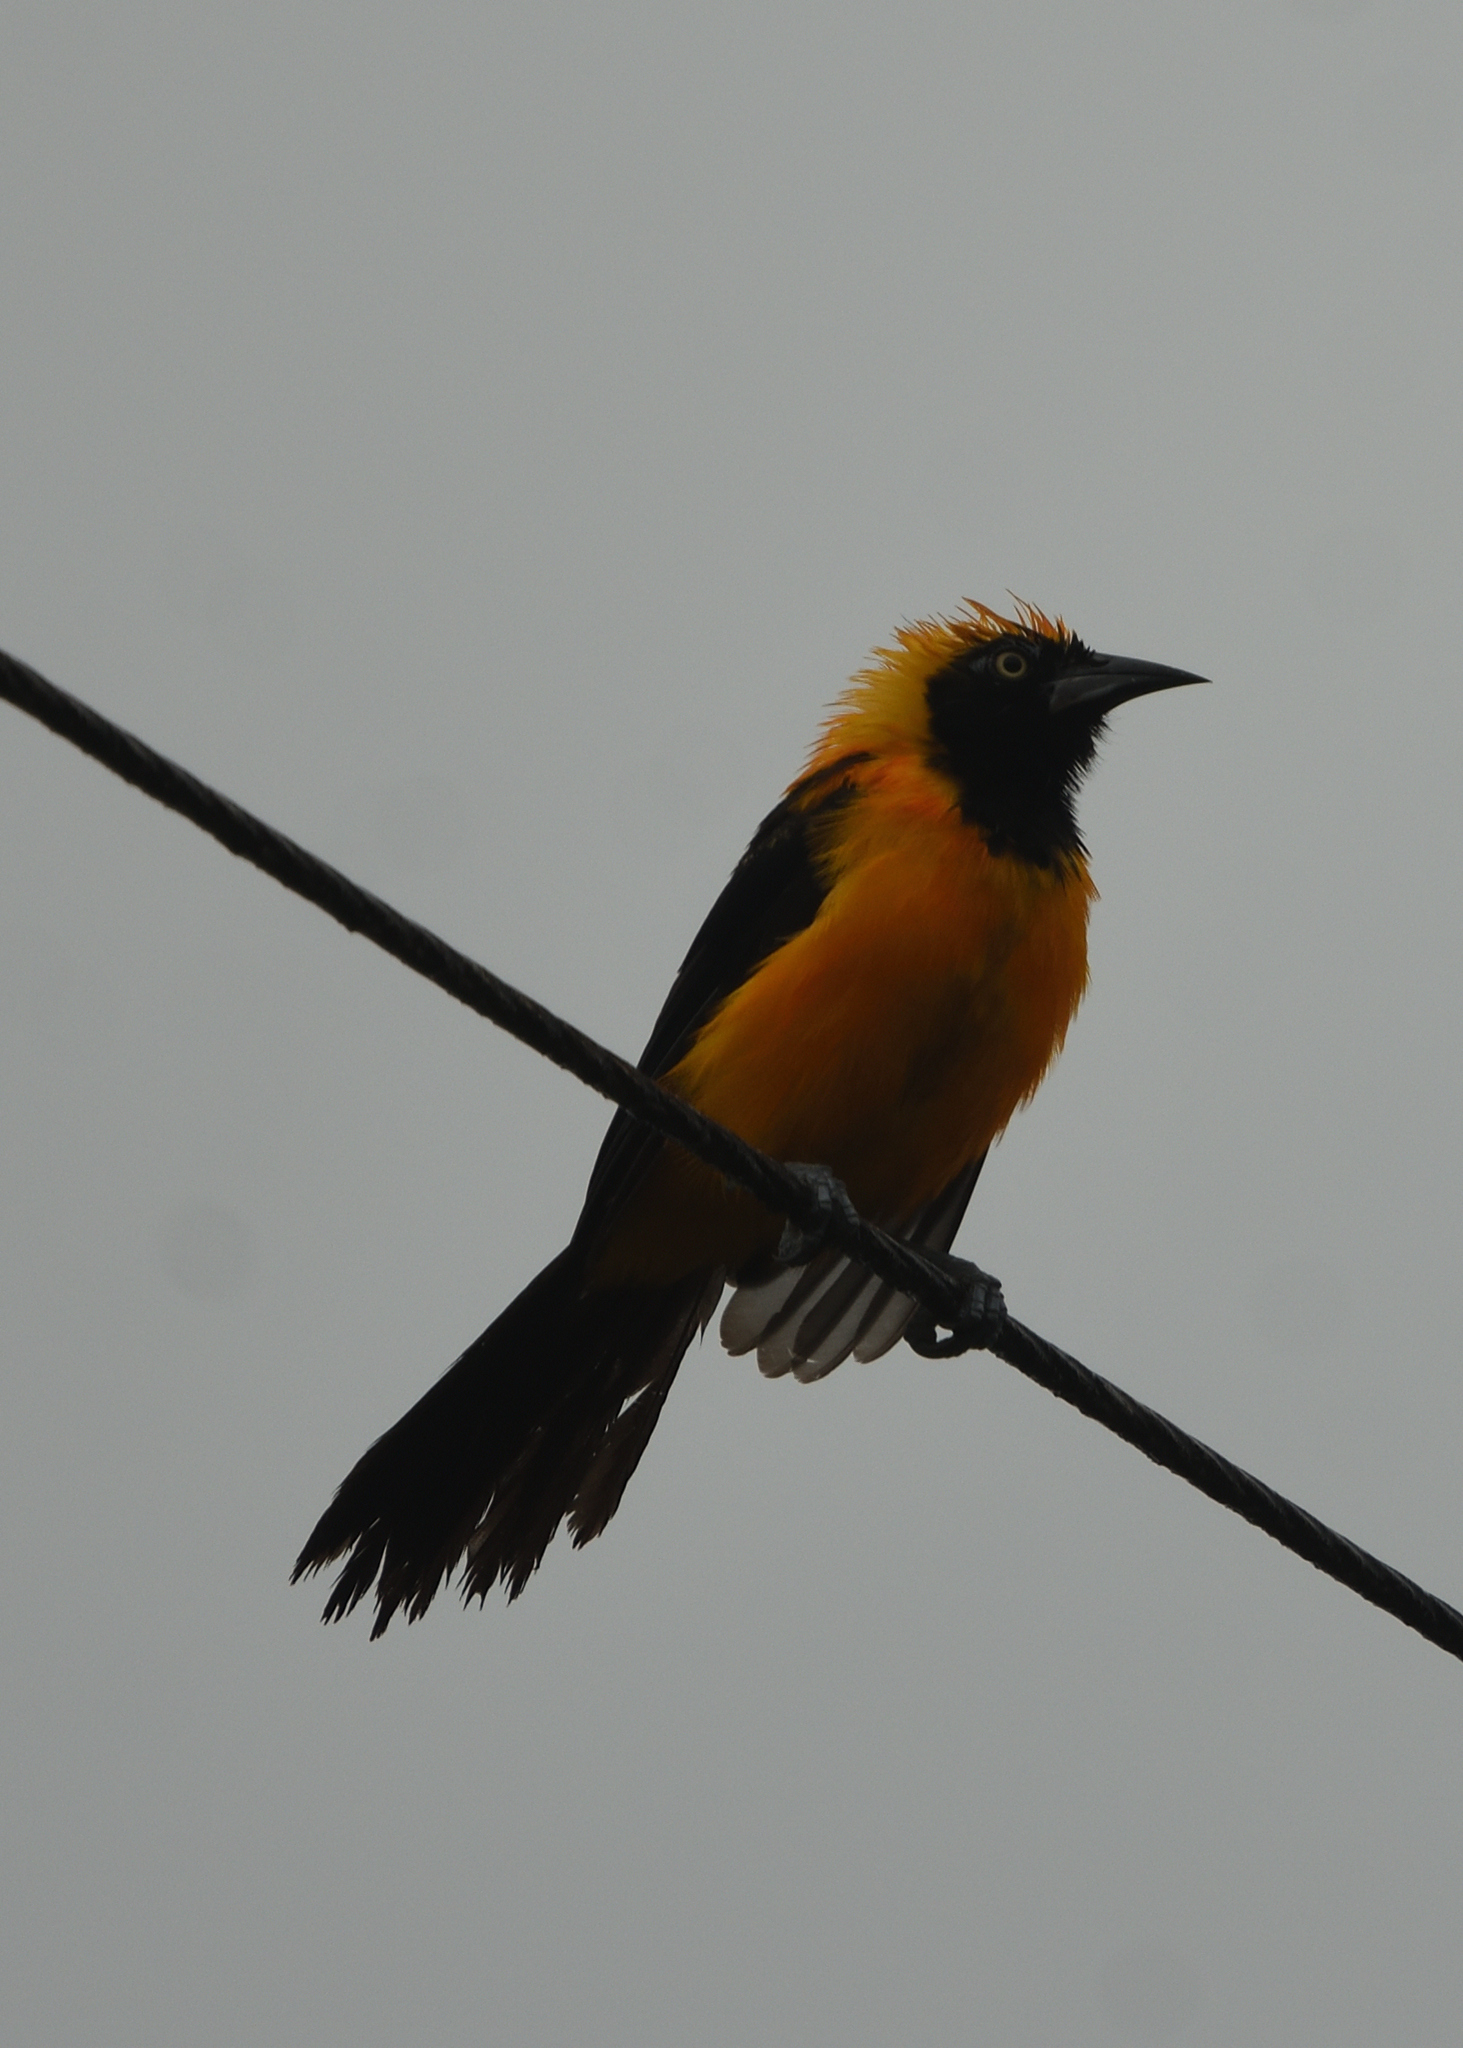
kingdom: Animalia
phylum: Chordata
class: Aves
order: Passeriformes
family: Icteridae
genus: Icterus
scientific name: Icterus icterus
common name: Venezuelan troupial
